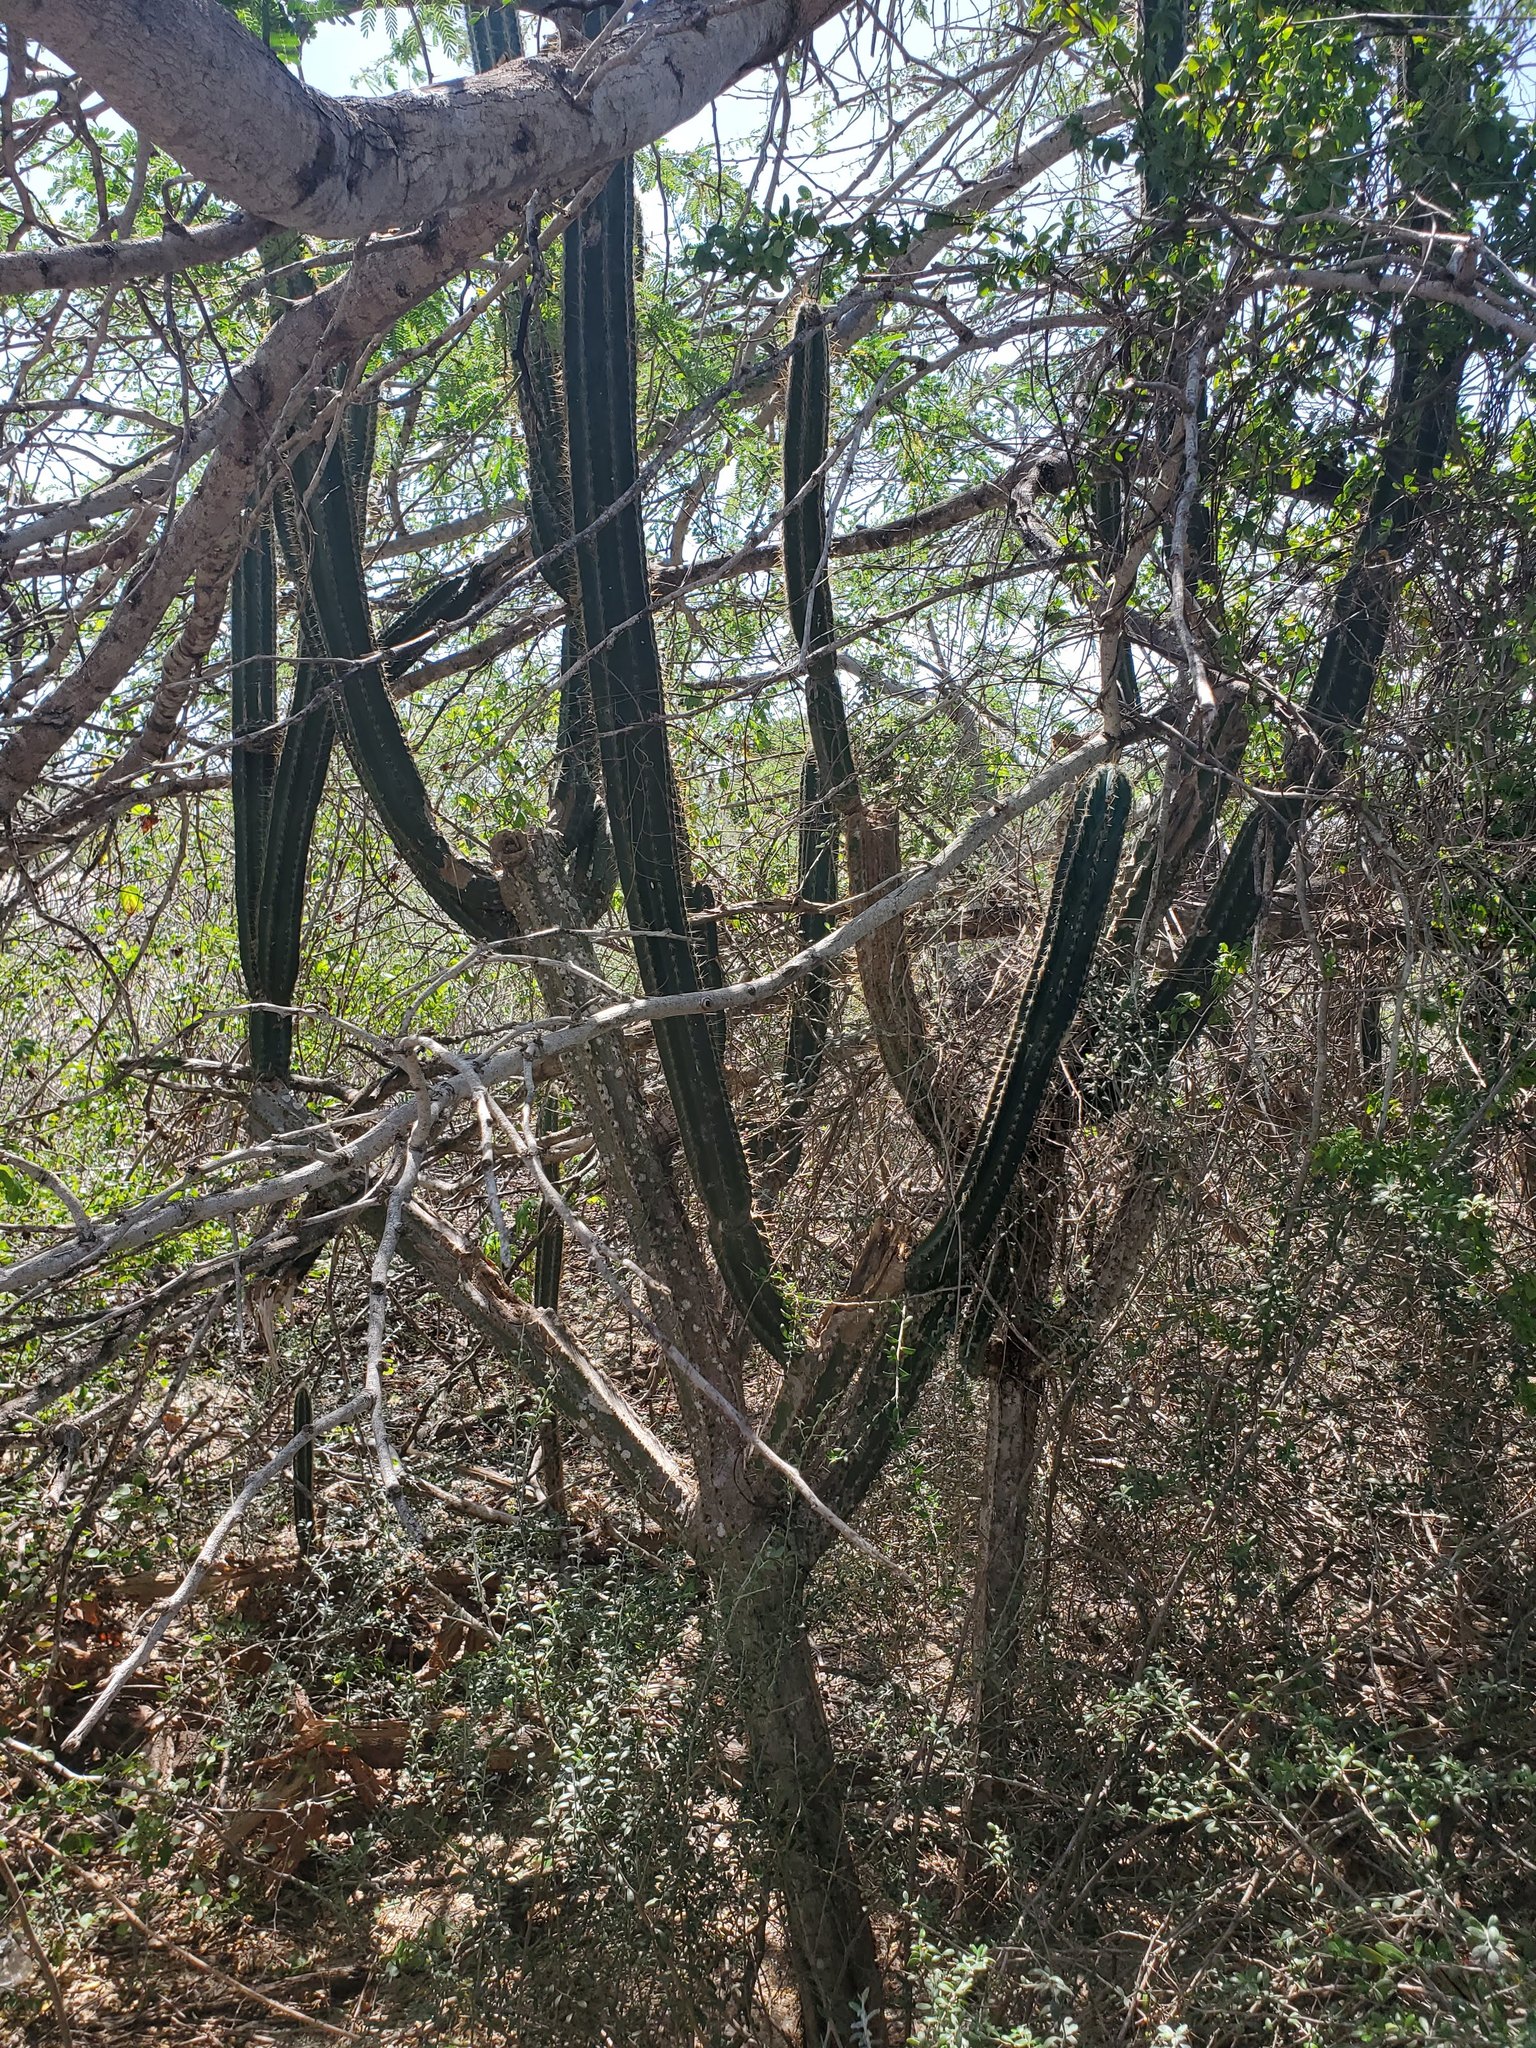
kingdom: Plantae
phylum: Tracheophyta
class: Magnoliopsida
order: Caryophyllales
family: Cactaceae
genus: Pilosocereus
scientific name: Pilosocereus armatus
